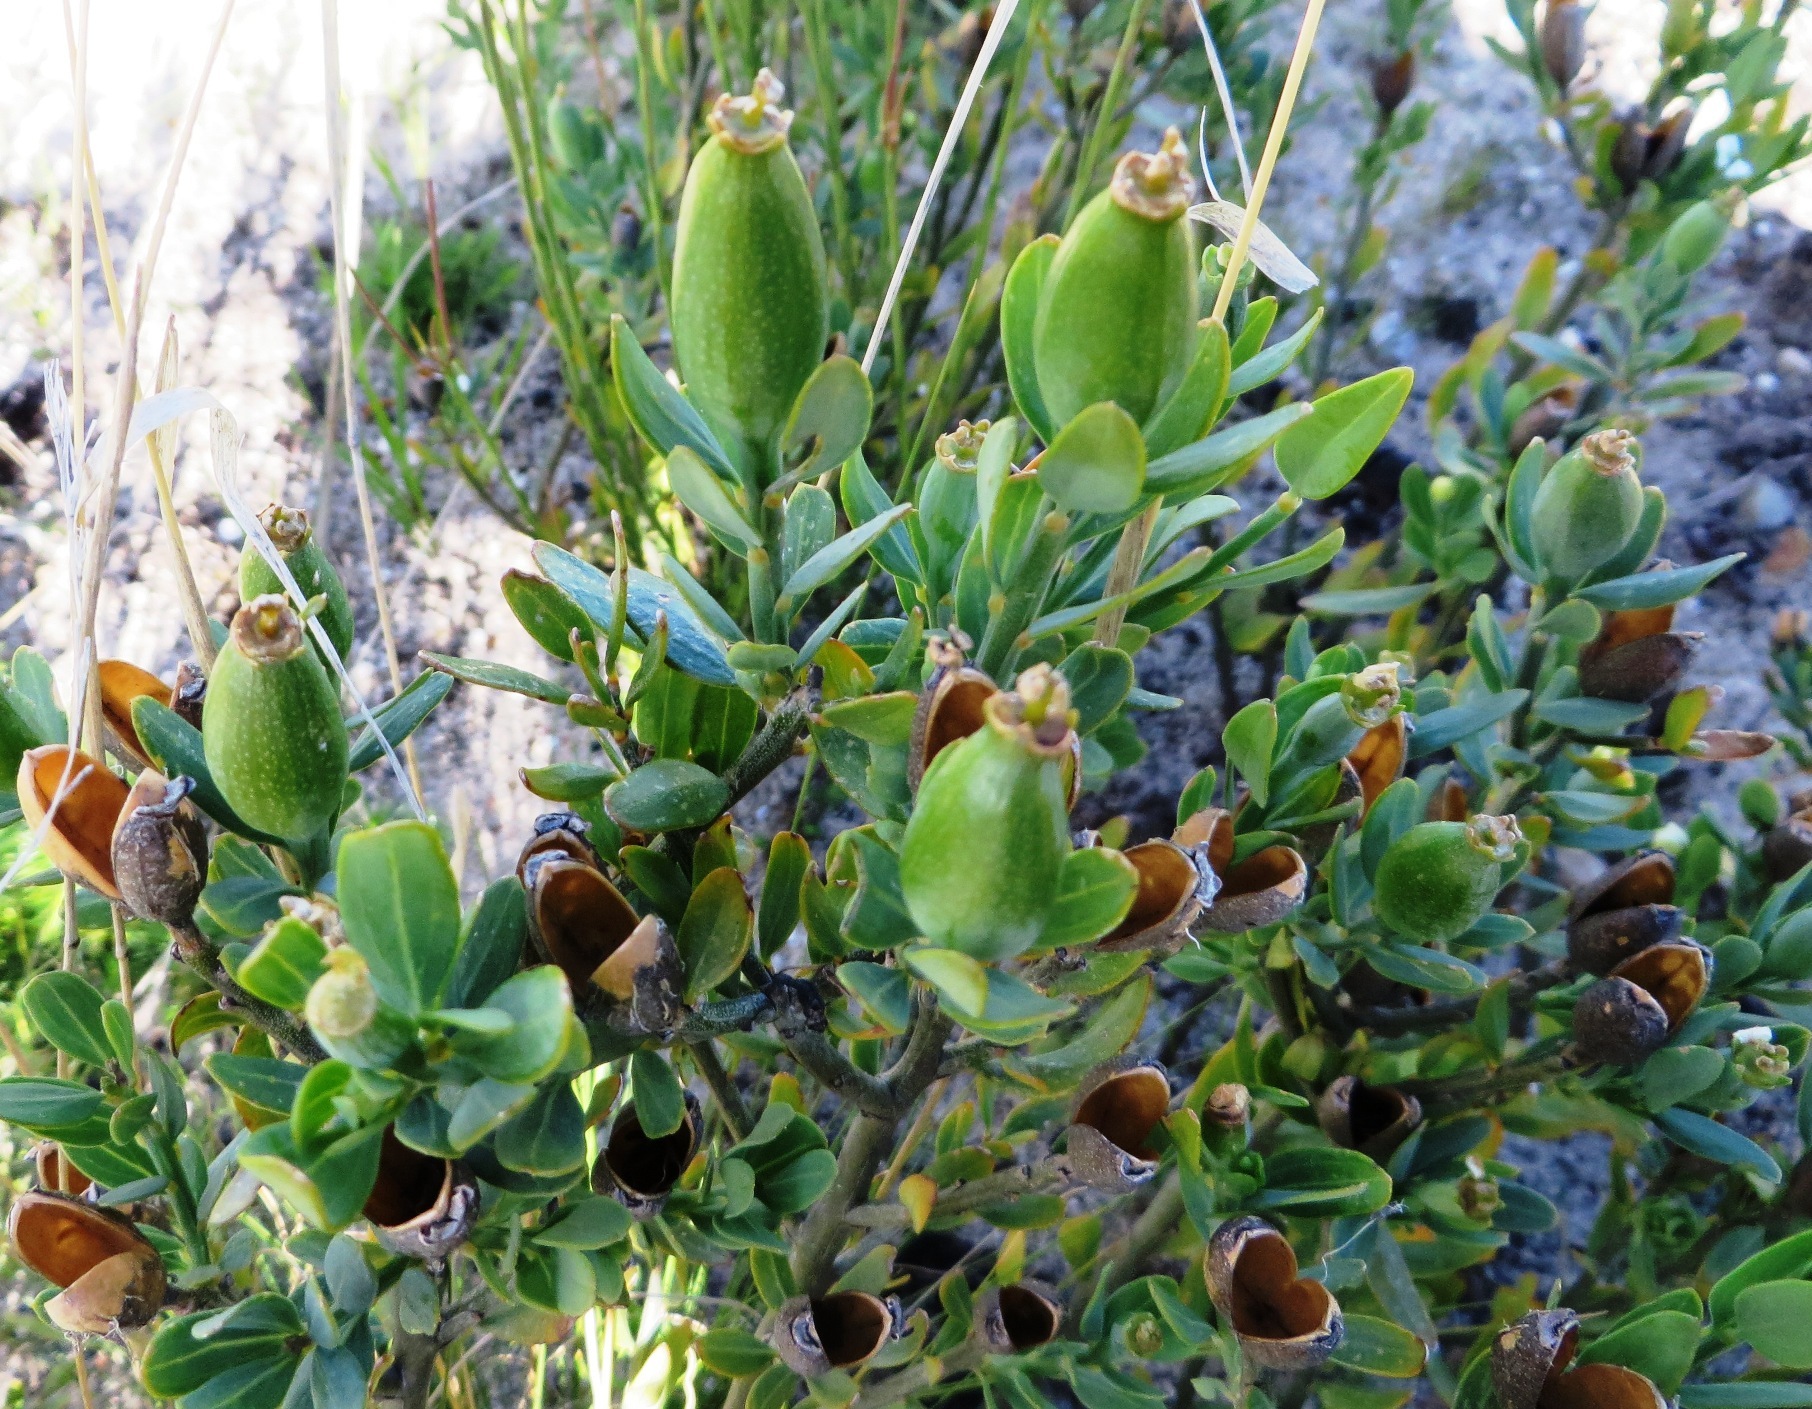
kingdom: Plantae
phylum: Tracheophyta
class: Magnoliopsida
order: Solanales
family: Montiniaceae
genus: Montinia
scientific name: Montinia caryophyllacea
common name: Wild clove-bush
